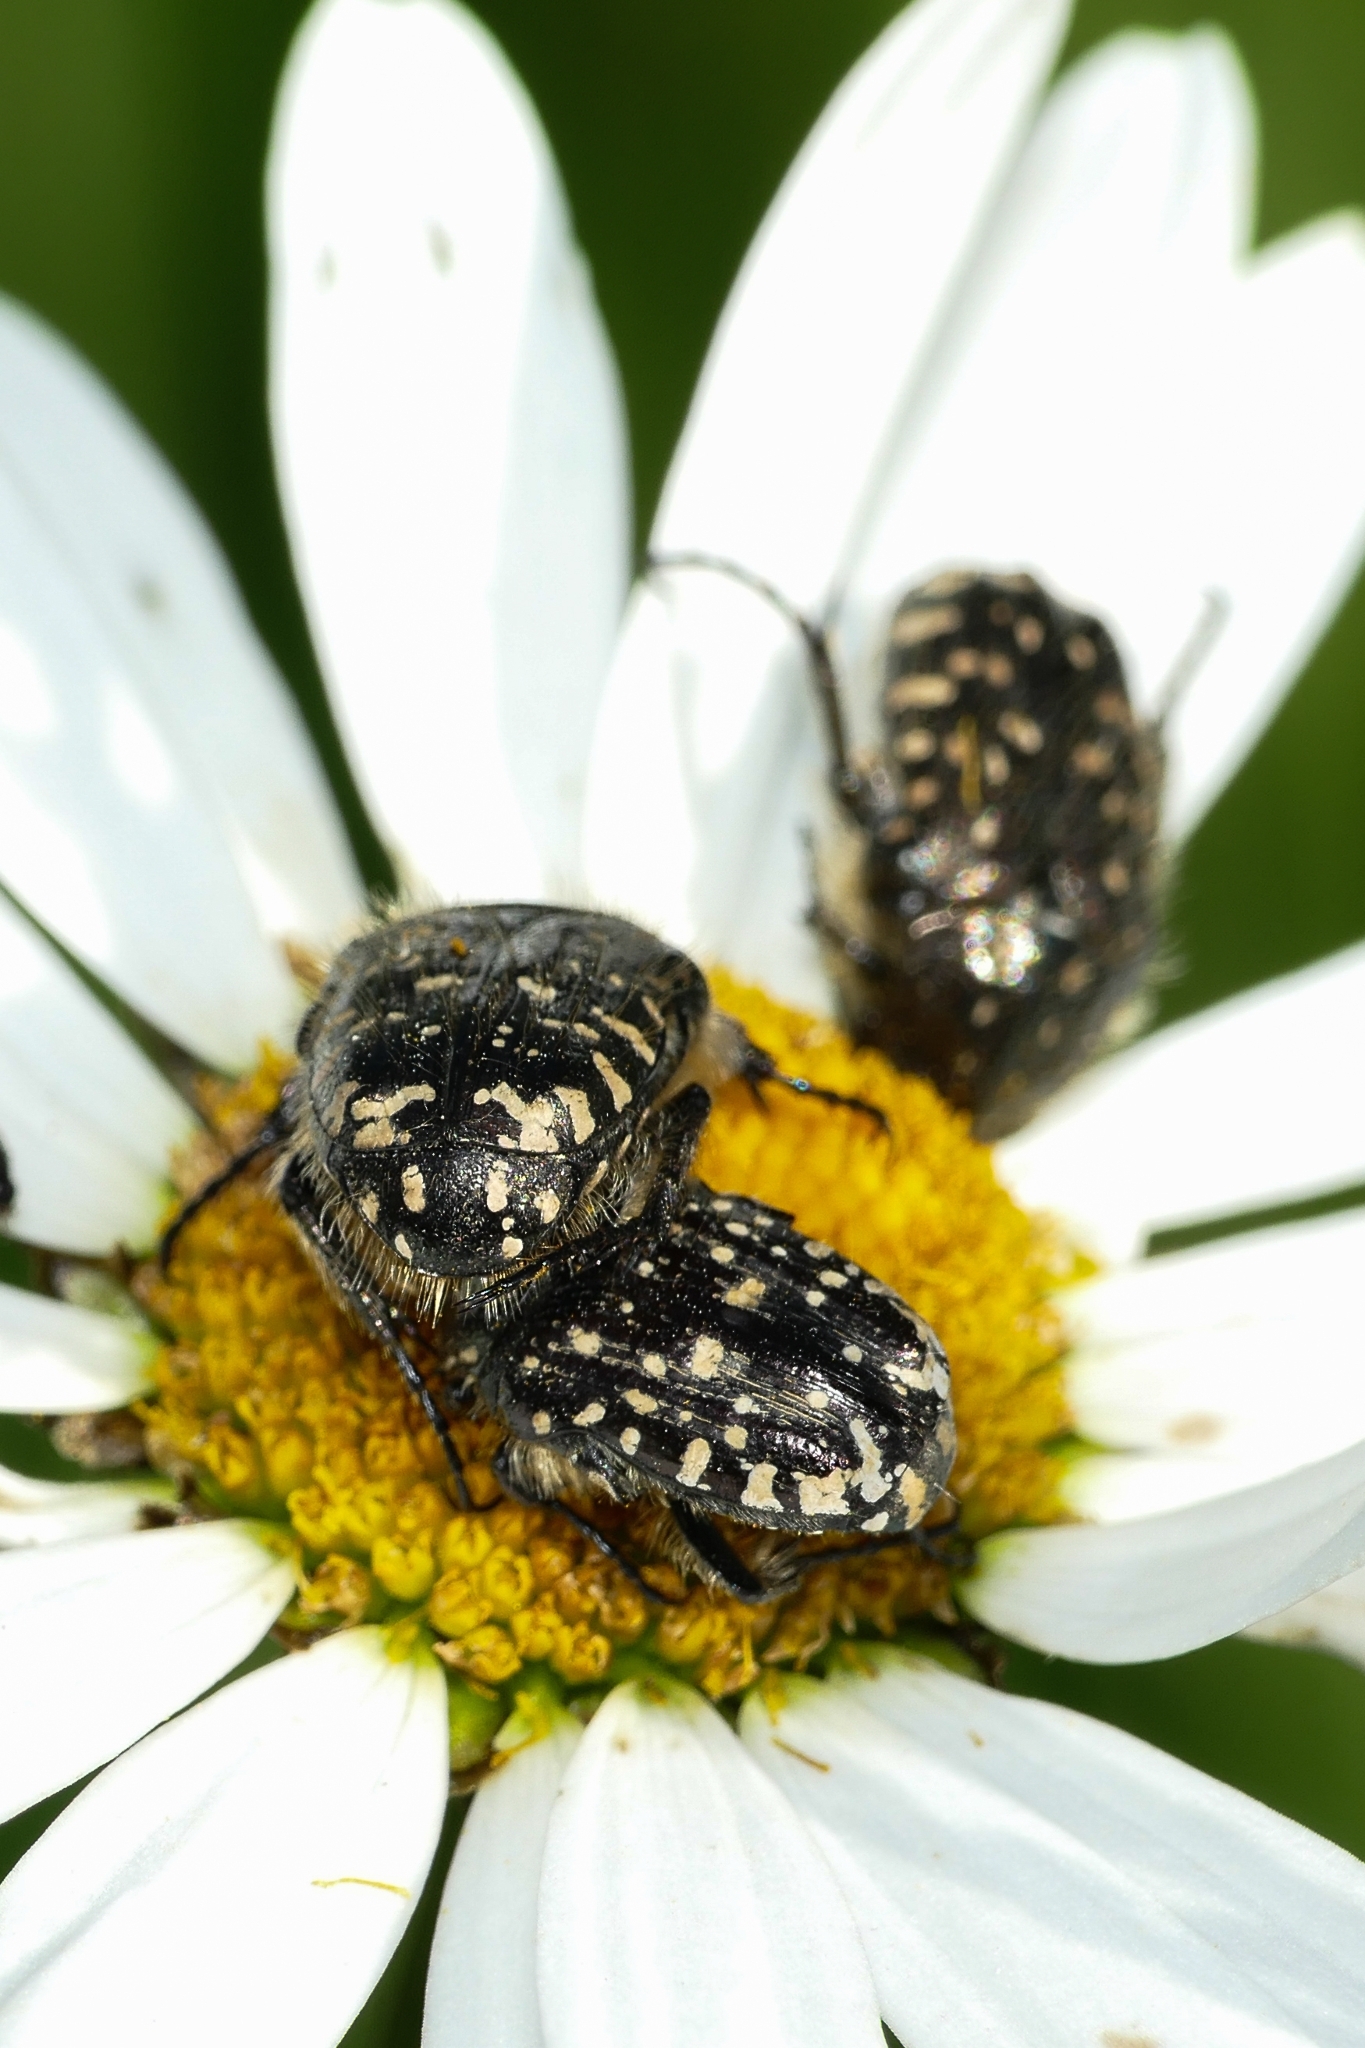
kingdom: Animalia
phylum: Arthropoda
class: Insecta
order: Coleoptera
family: Scarabaeidae
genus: Oxythyrea
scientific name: Oxythyrea funesta
